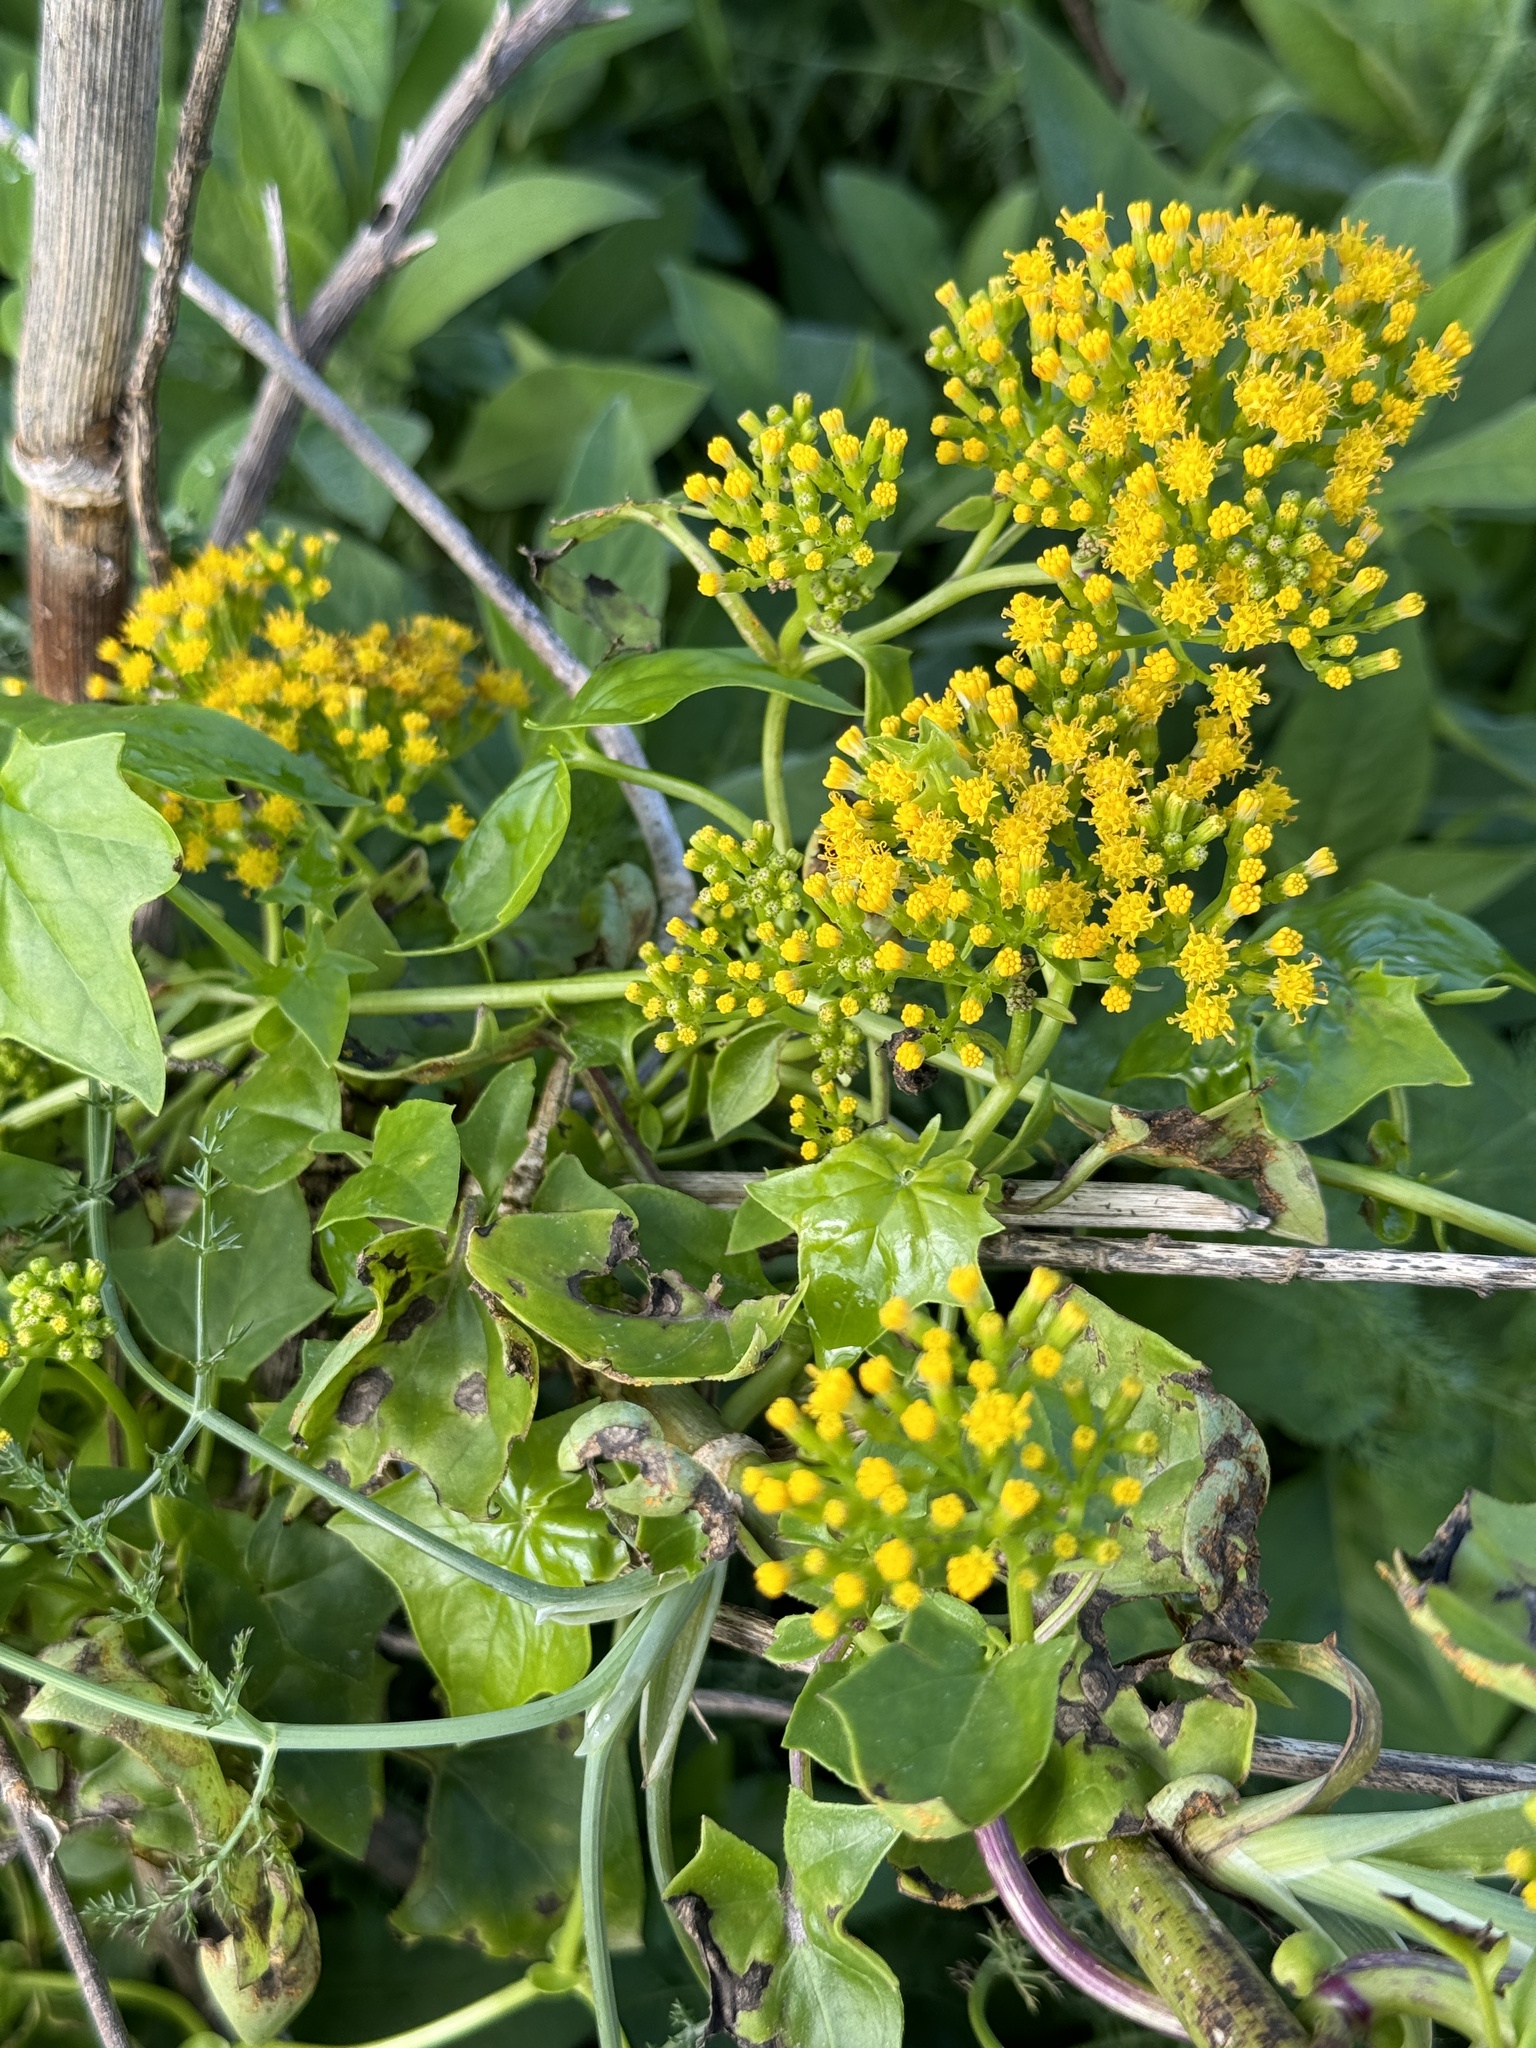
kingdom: Plantae
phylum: Tracheophyta
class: Magnoliopsida
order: Asterales
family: Asteraceae
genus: Senecio
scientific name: Senecio angulatus
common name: Climbing groundsel
